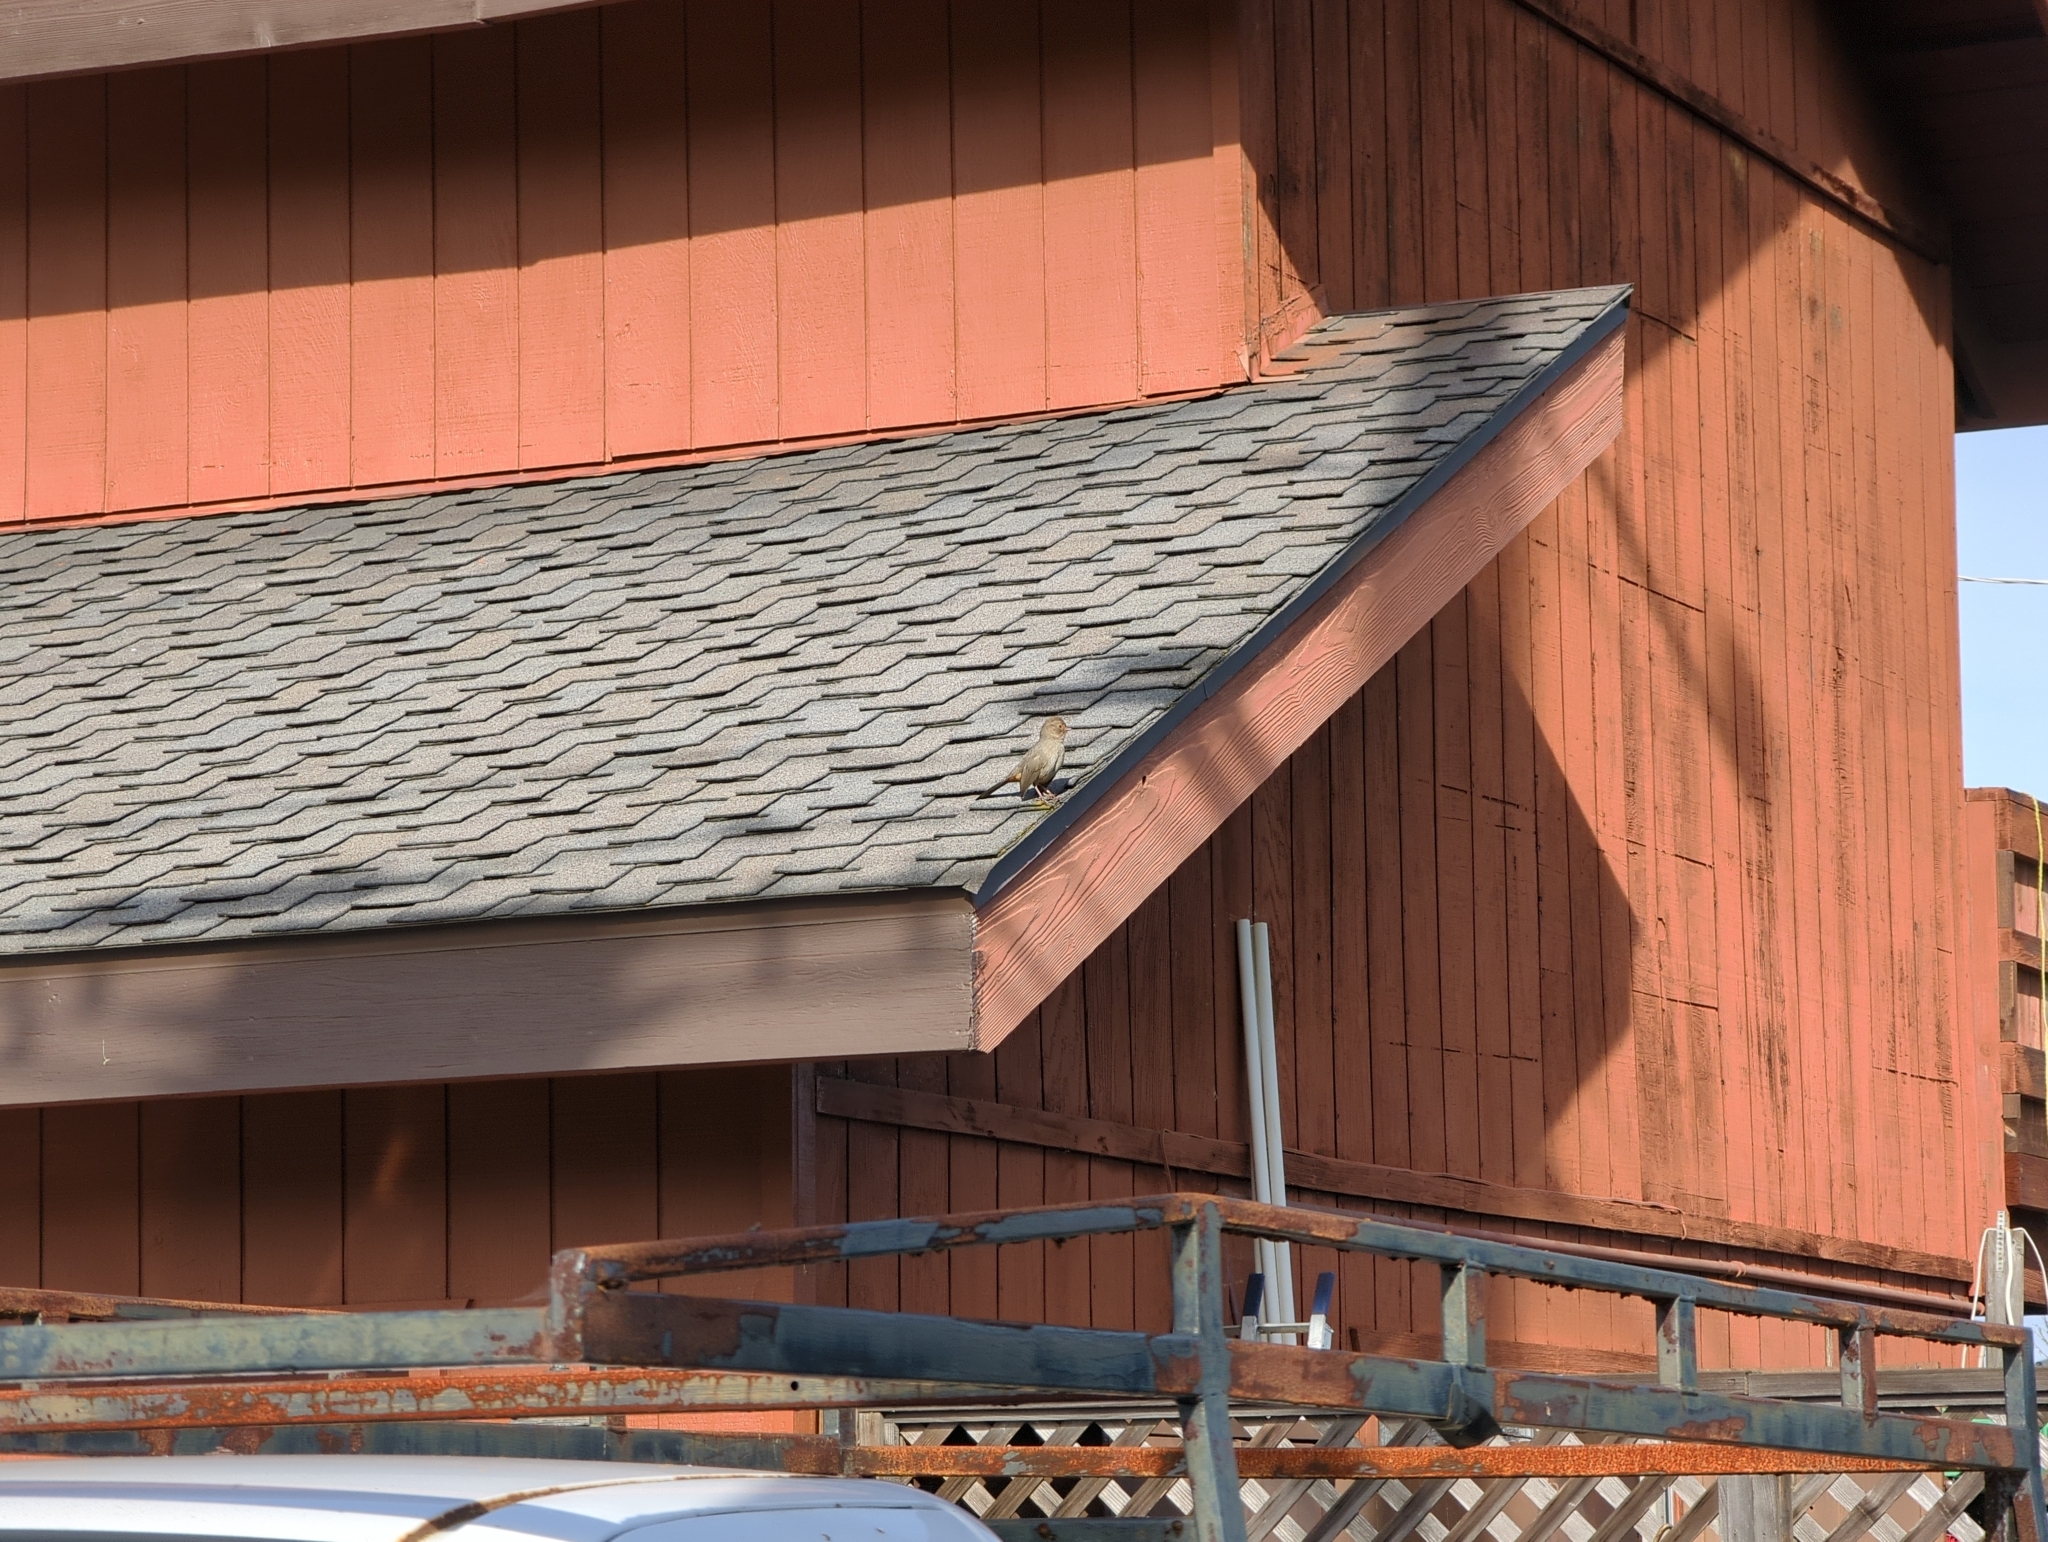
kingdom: Animalia
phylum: Chordata
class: Aves
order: Passeriformes
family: Passerellidae
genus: Melozone
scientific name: Melozone crissalis
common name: California towhee
